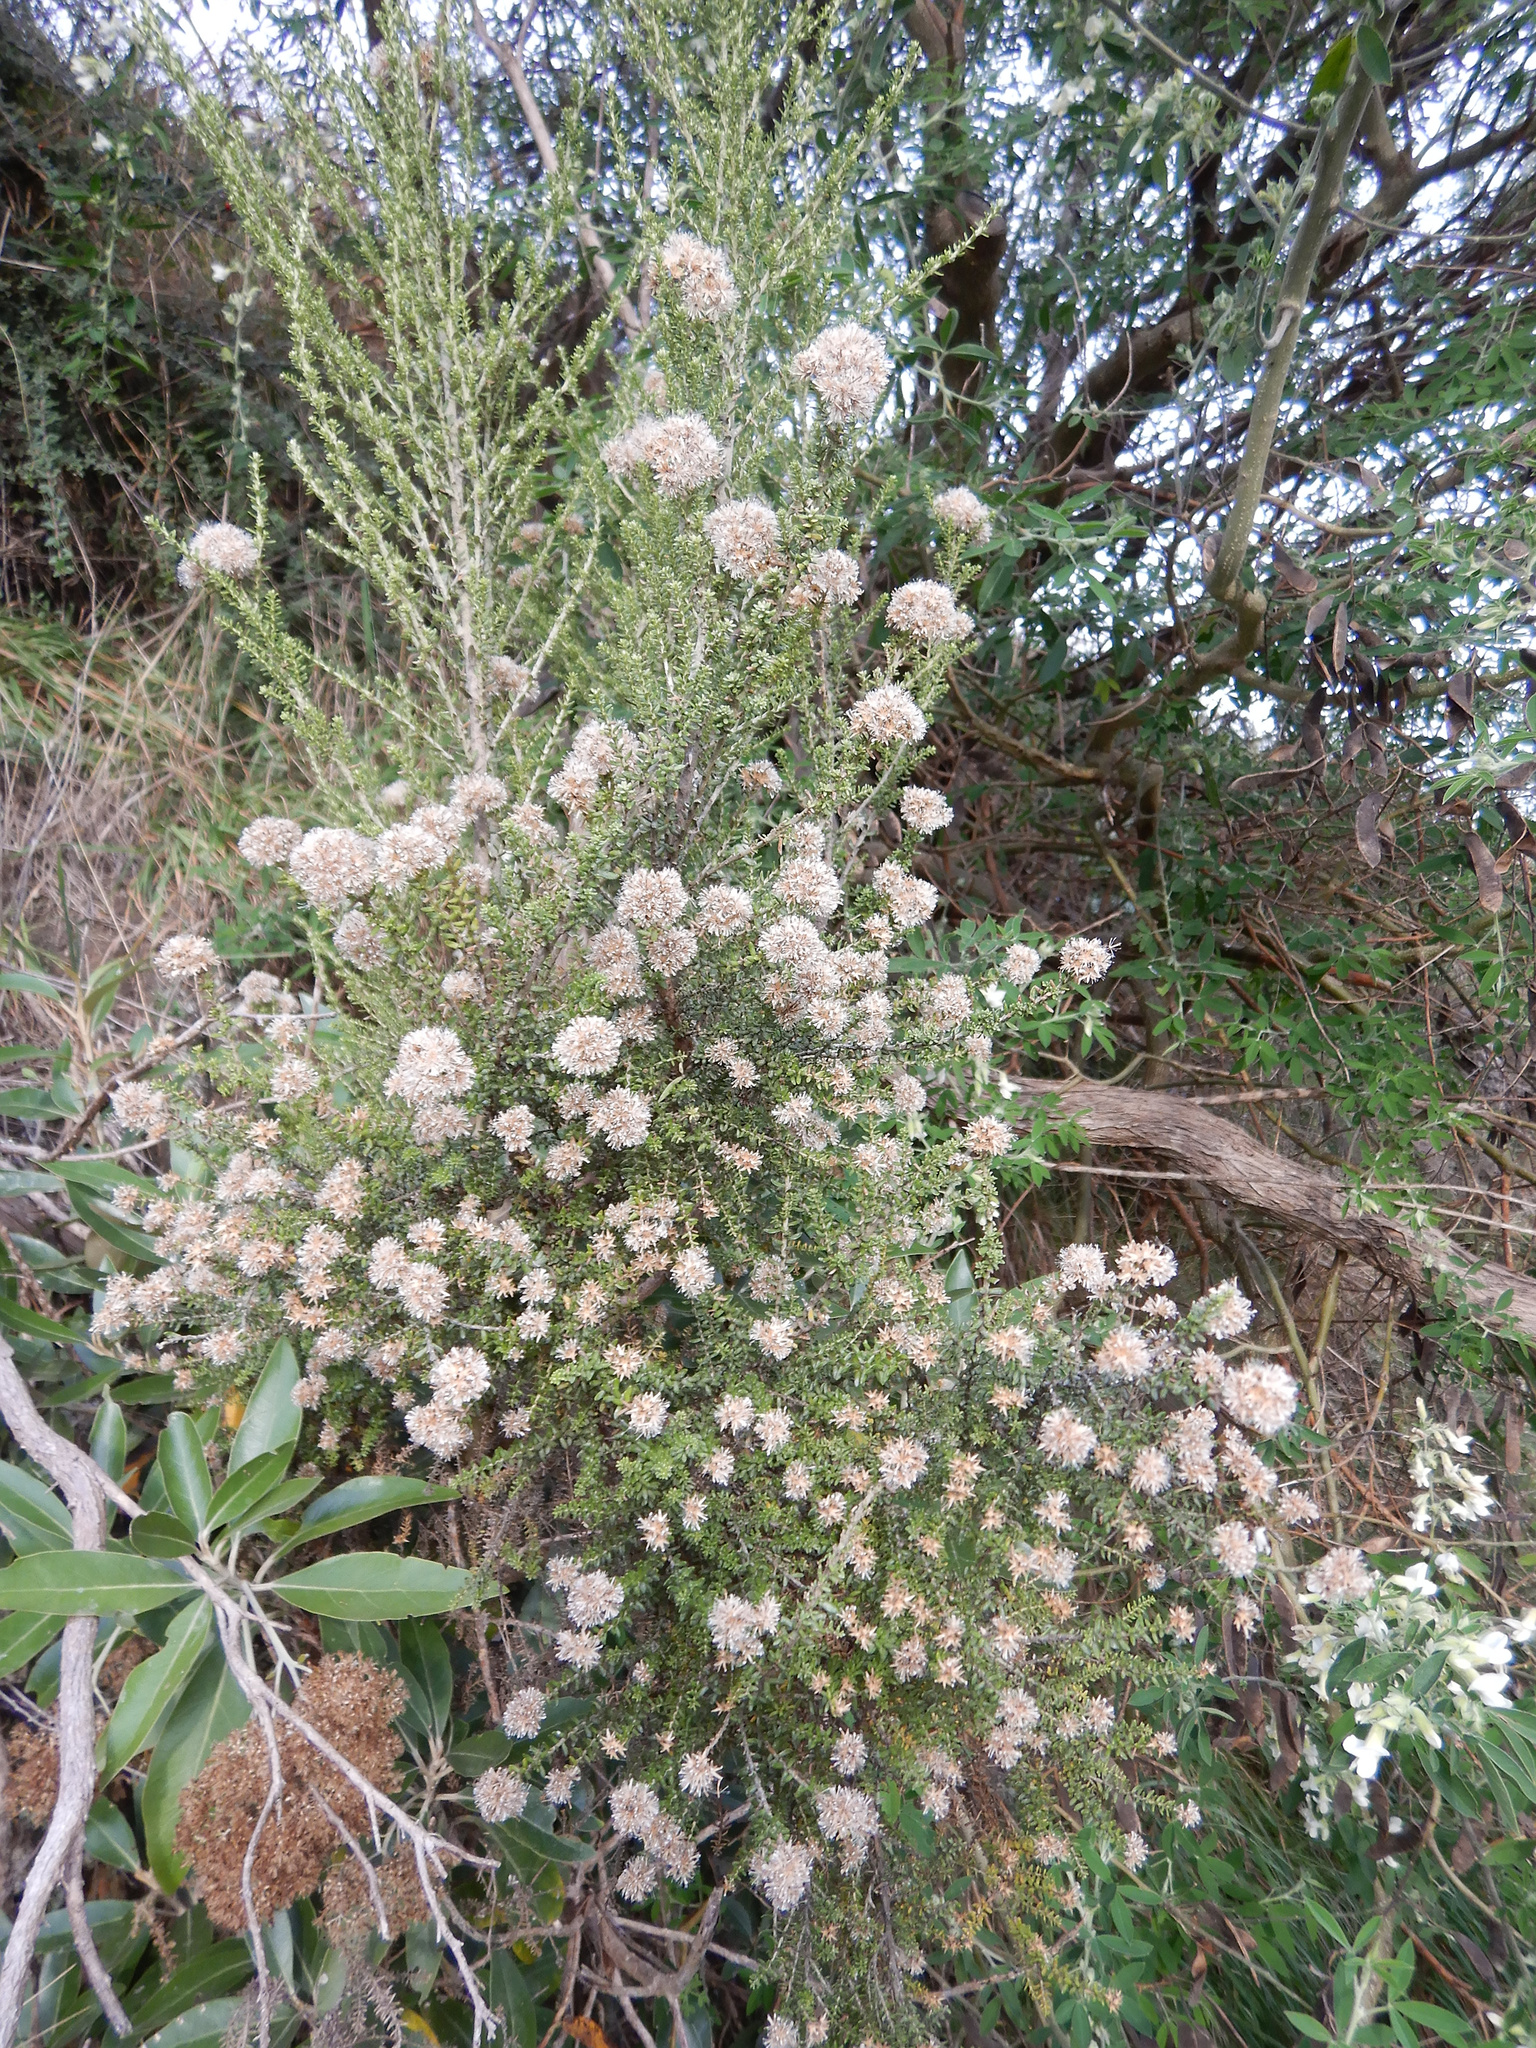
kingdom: Plantae
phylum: Tracheophyta
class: Magnoliopsida
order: Asterales
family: Asteraceae
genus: Ozothamnus
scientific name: Ozothamnus leptophyllus
